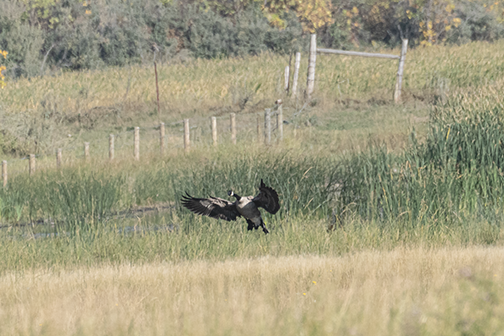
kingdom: Animalia
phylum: Chordata
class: Aves
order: Anseriformes
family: Anatidae
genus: Branta
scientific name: Branta canadensis
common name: Canada goose
